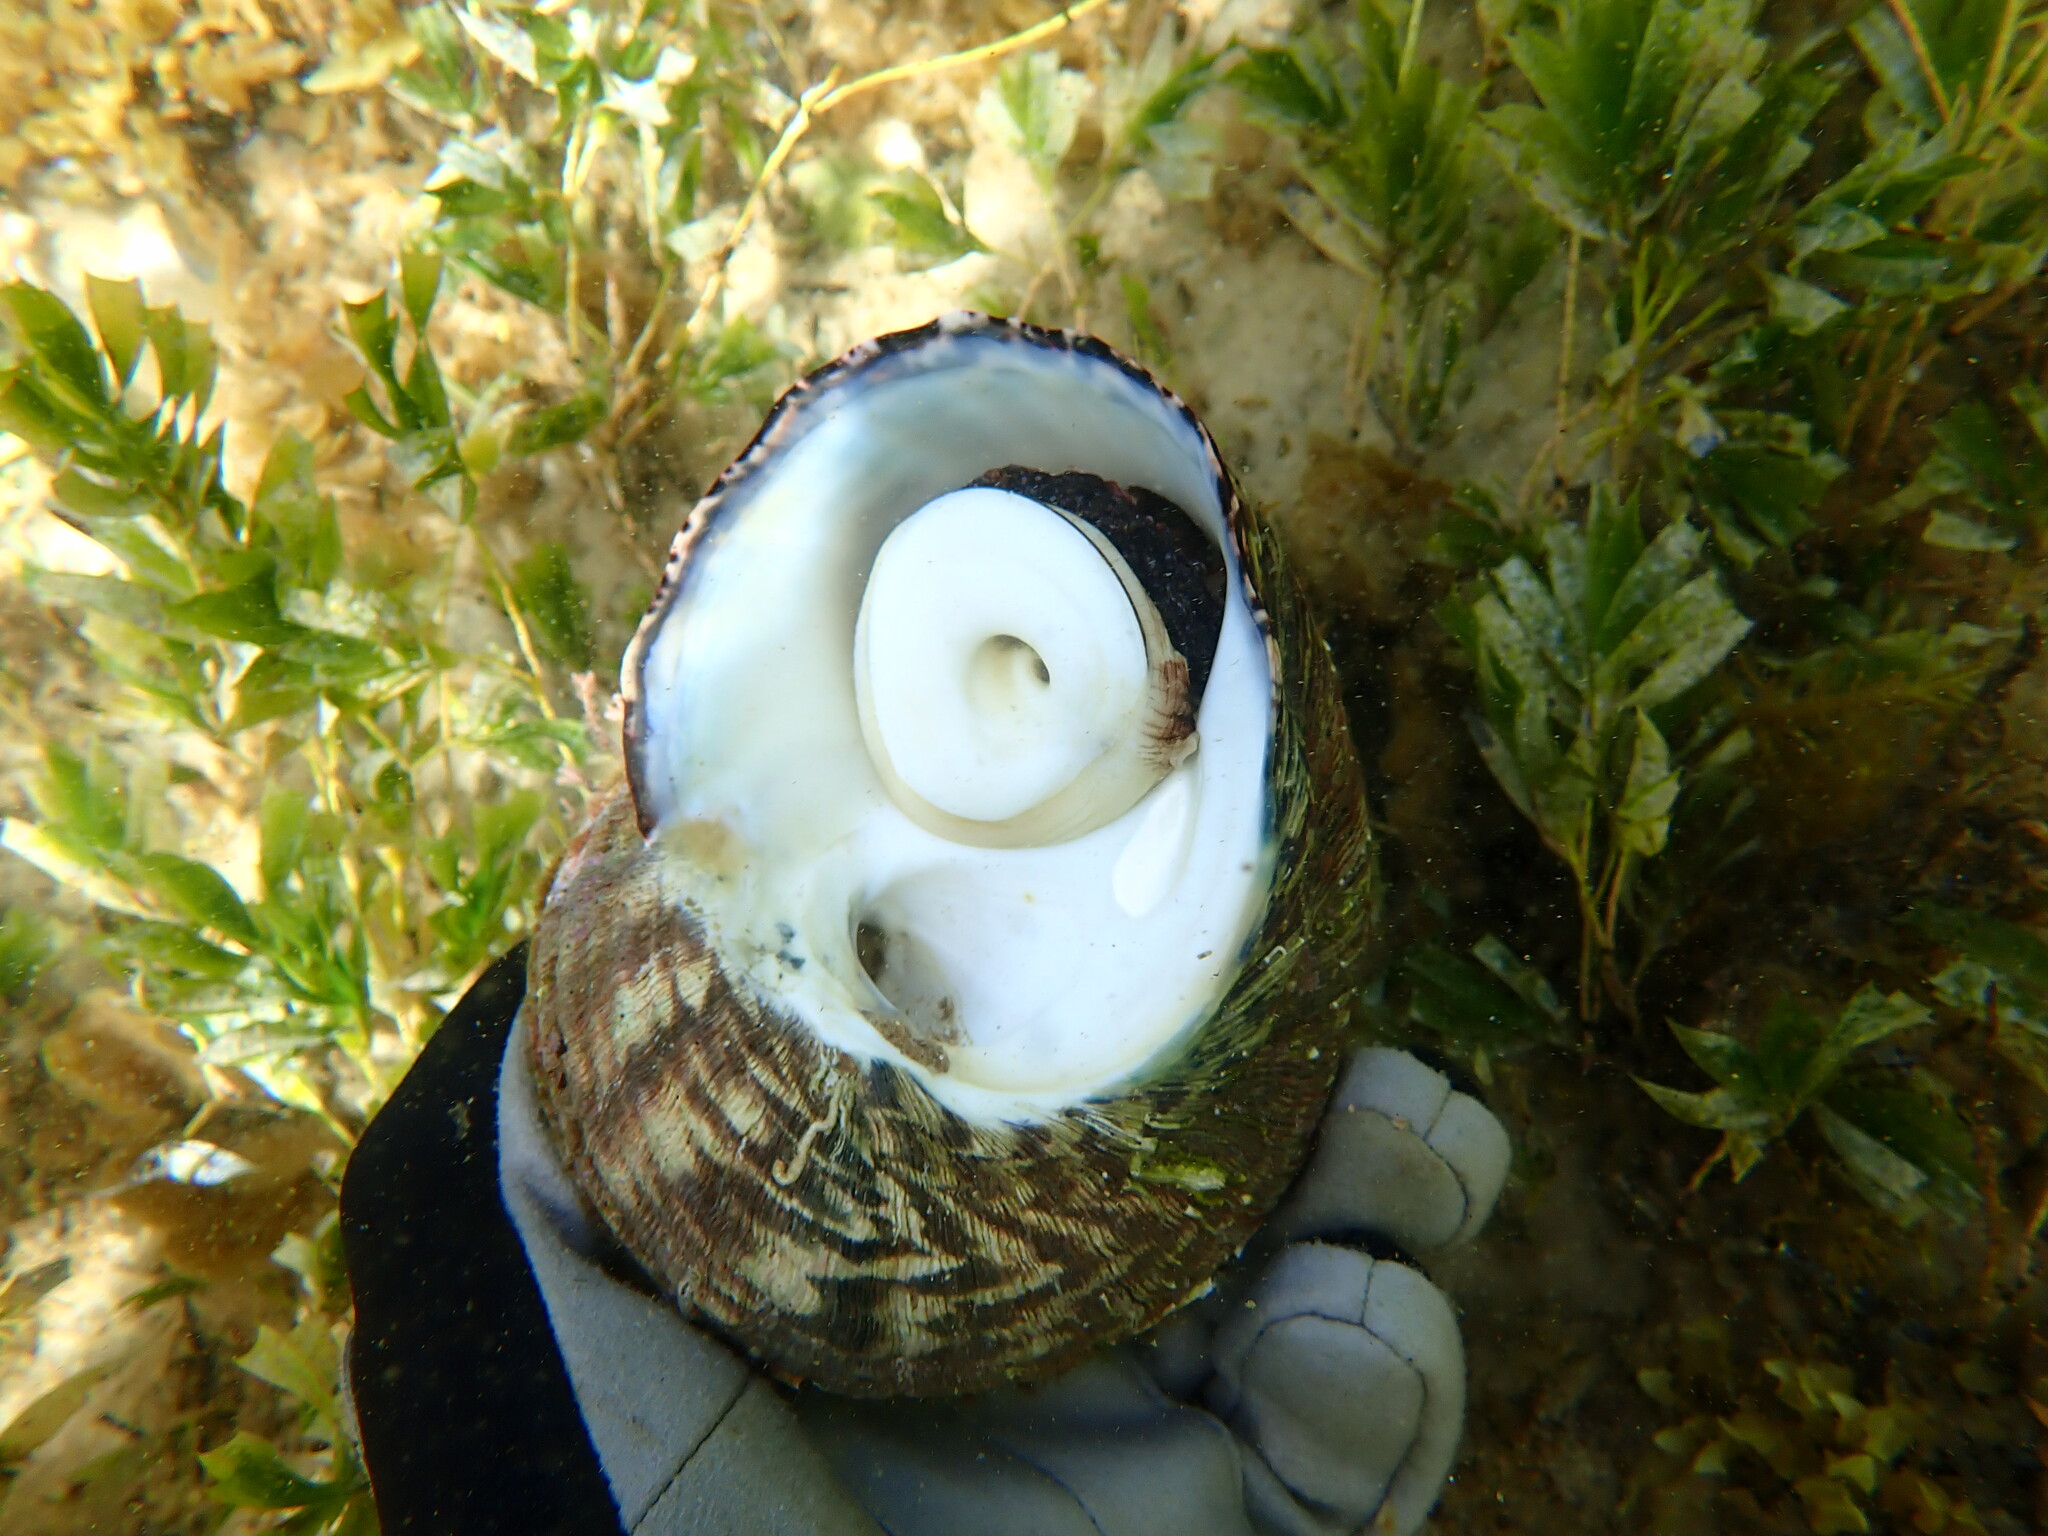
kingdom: Animalia
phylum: Mollusca
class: Gastropoda
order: Trochida
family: Turbinidae
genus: Lunella
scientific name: Lunella torquata
